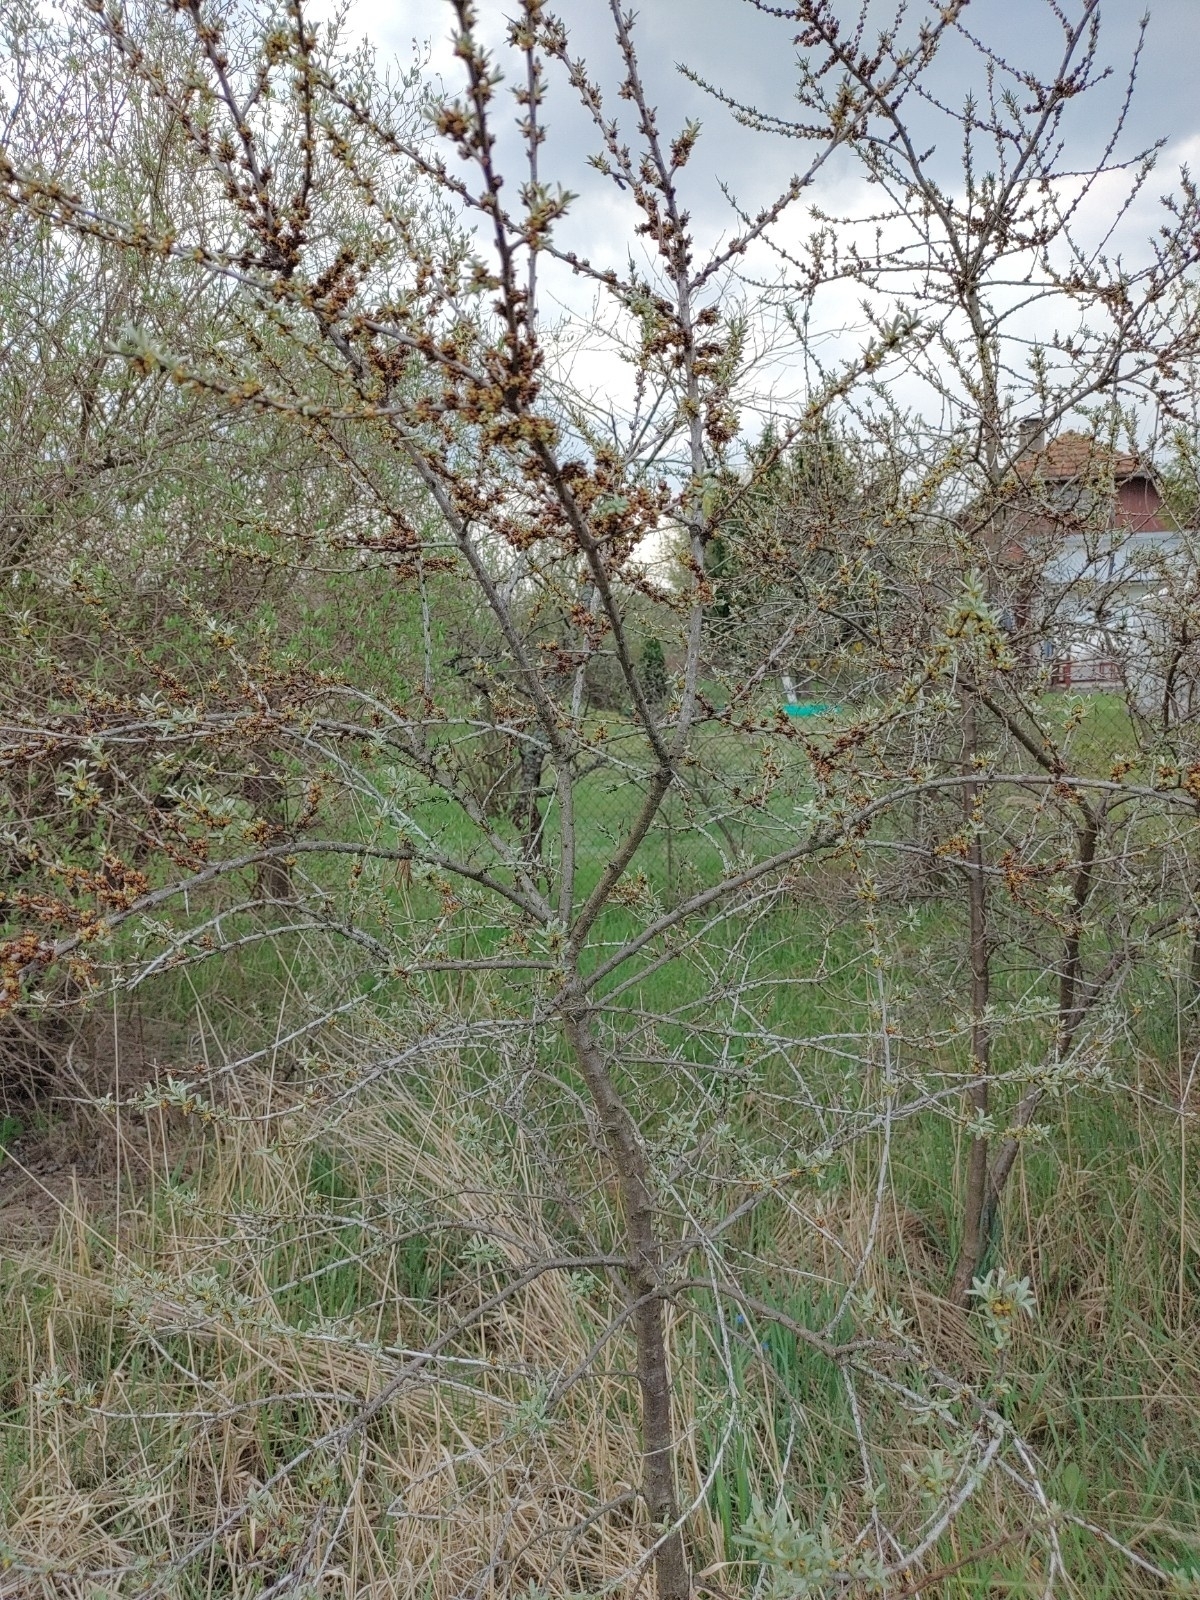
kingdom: Plantae
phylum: Tracheophyta
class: Magnoliopsida
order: Rosales
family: Elaeagnaceae
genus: Hippophae
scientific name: Hippophae rhamnoides
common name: Sea-buckthorn
